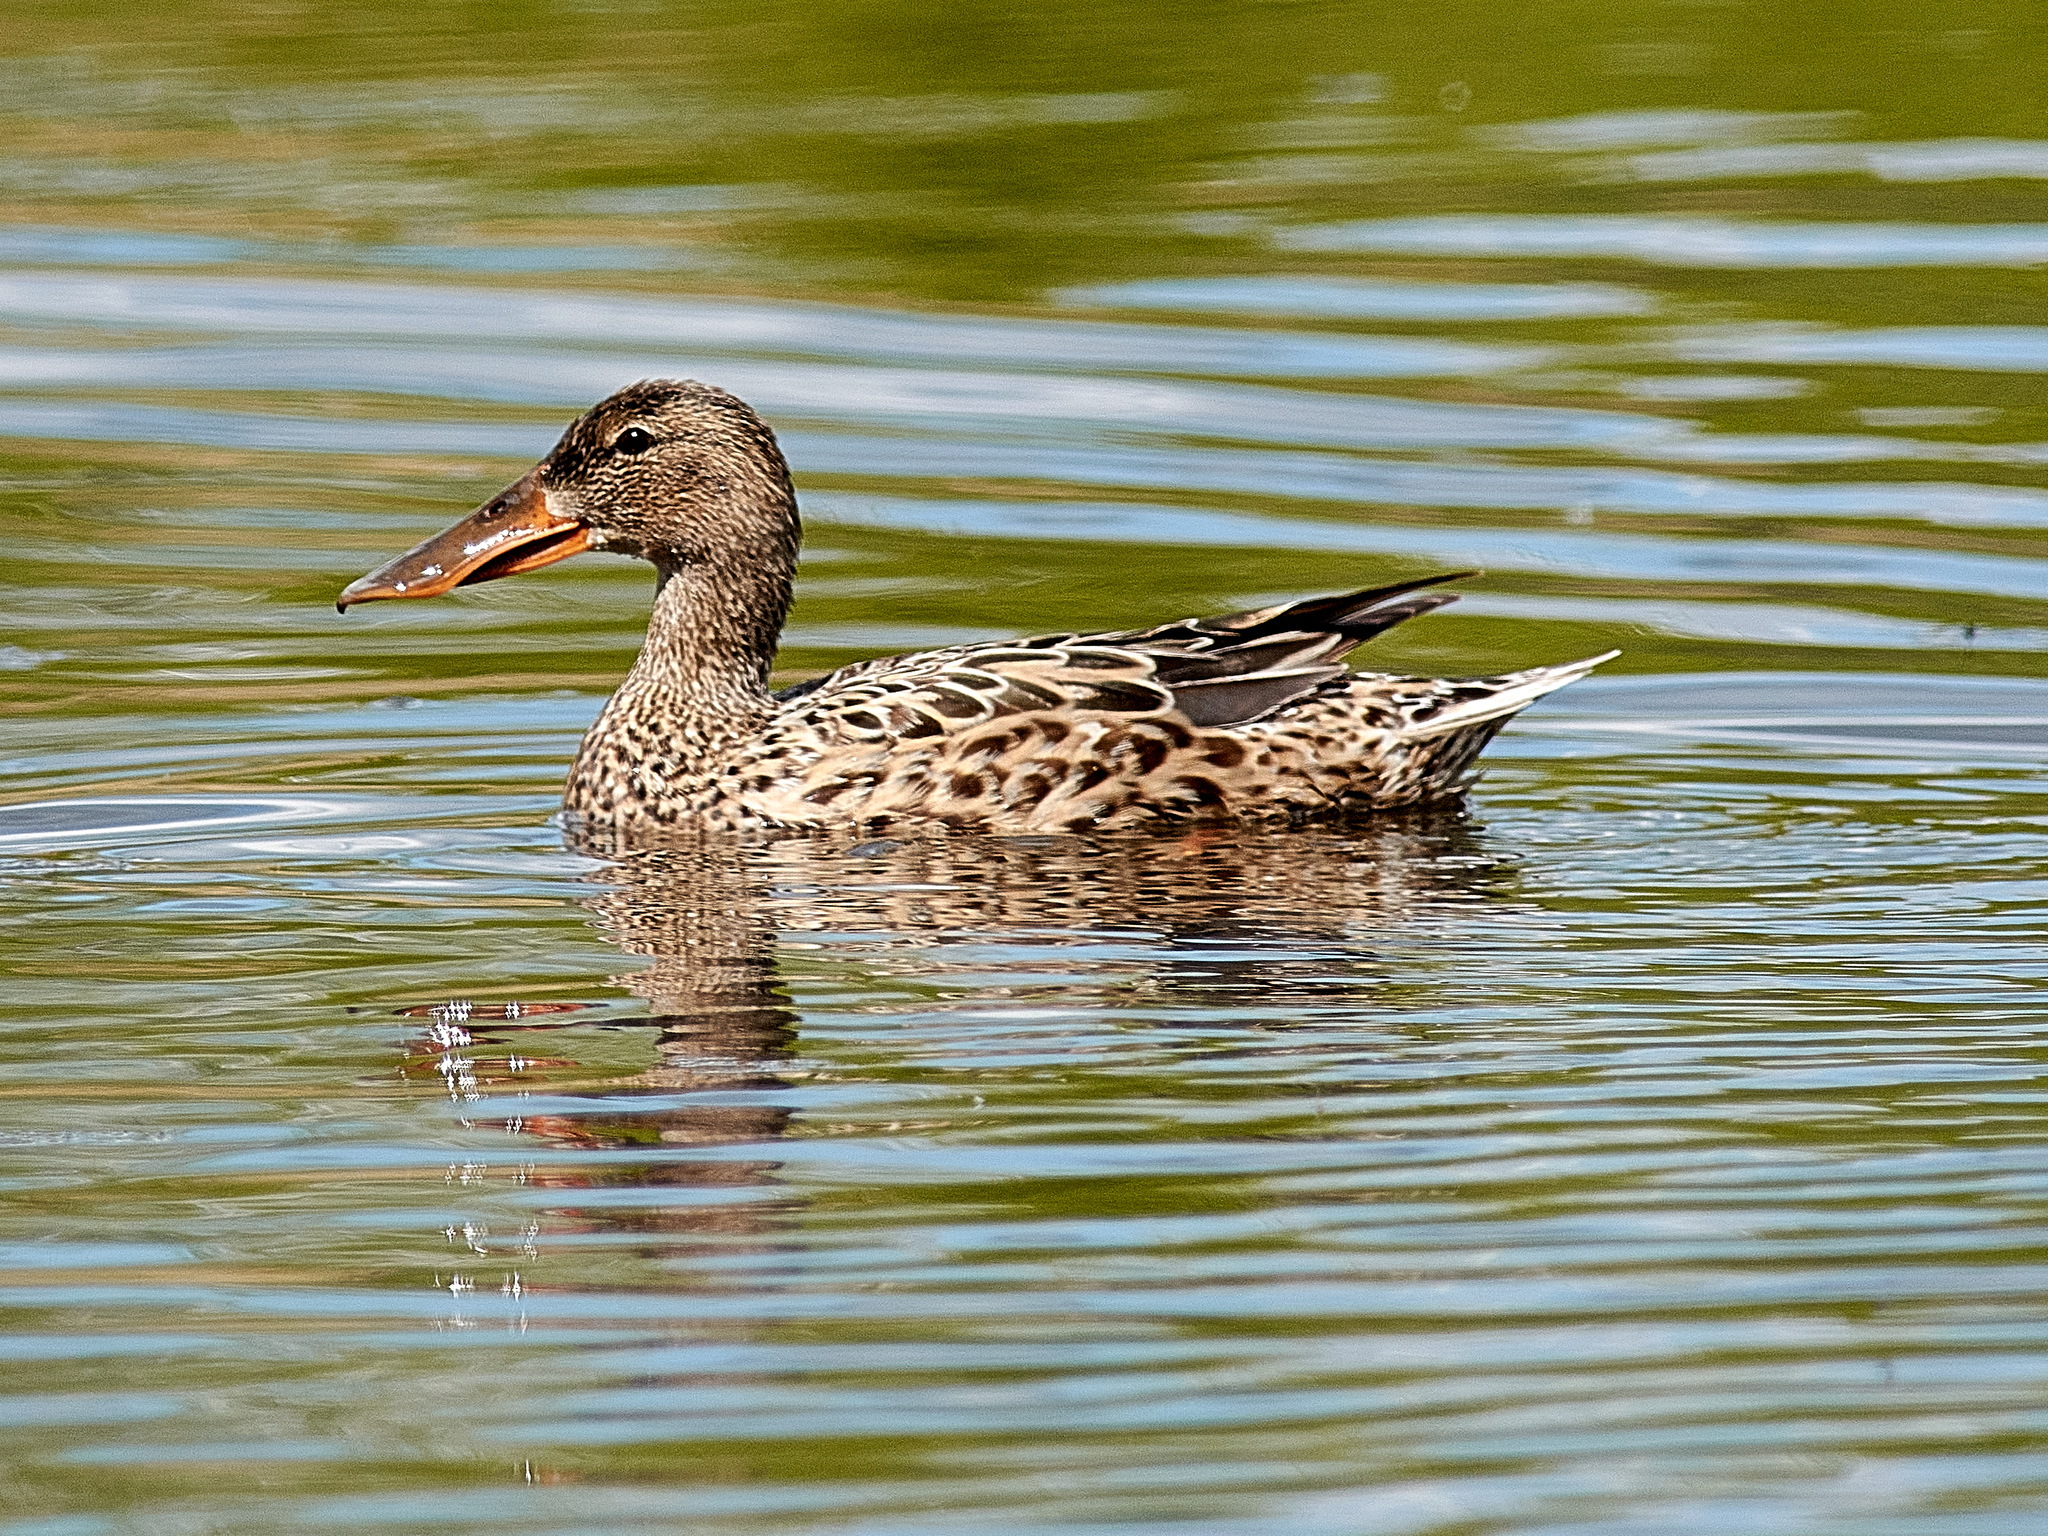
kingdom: Animalia
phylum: Chordata
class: Aves
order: Anseriformes
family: Anatidae
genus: Spatula
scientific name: Spatula clypeata
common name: Northern shoveler
